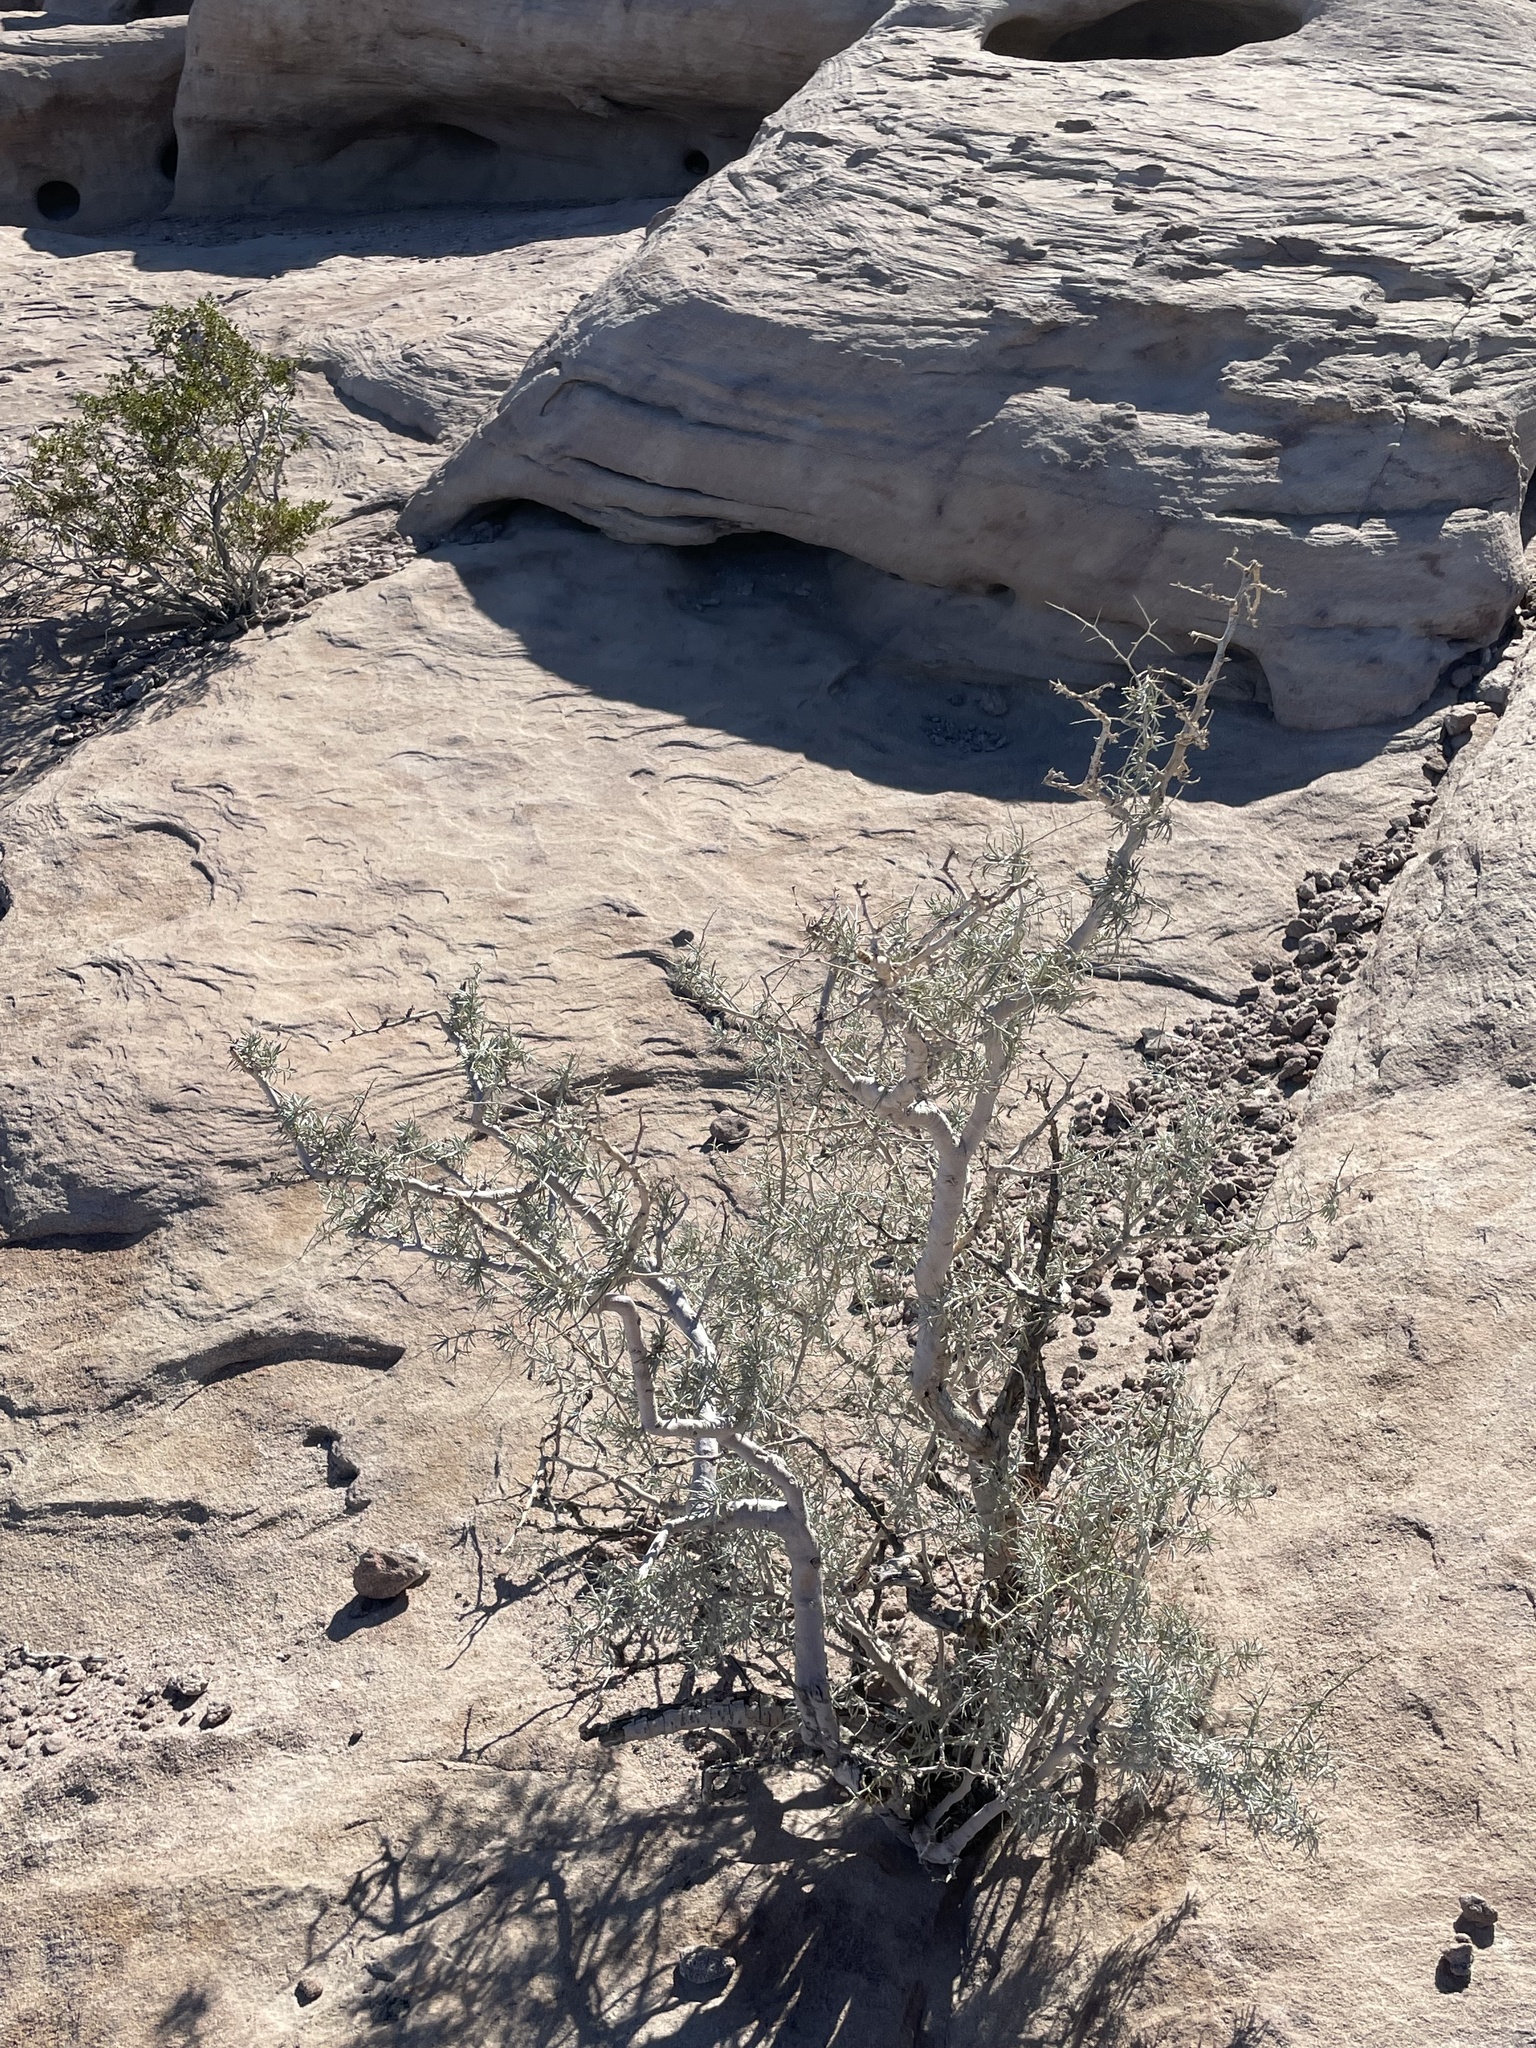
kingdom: Plantae
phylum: Tracheophyta
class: Magnoliopsida
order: Fabales
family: Fabaceae
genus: Psorothamnus
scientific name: Psorothamnus schottii
